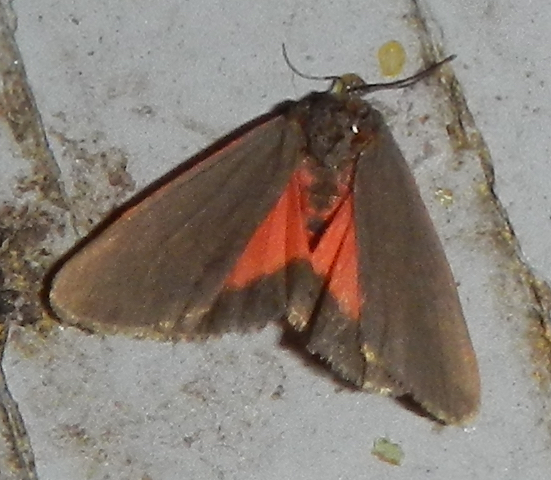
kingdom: Animalia
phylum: Arthropoda
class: Insecta
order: Lepidoptera
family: Erebidae
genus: Virbia
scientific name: Virbia laeta
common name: Joyful holomelina moth
